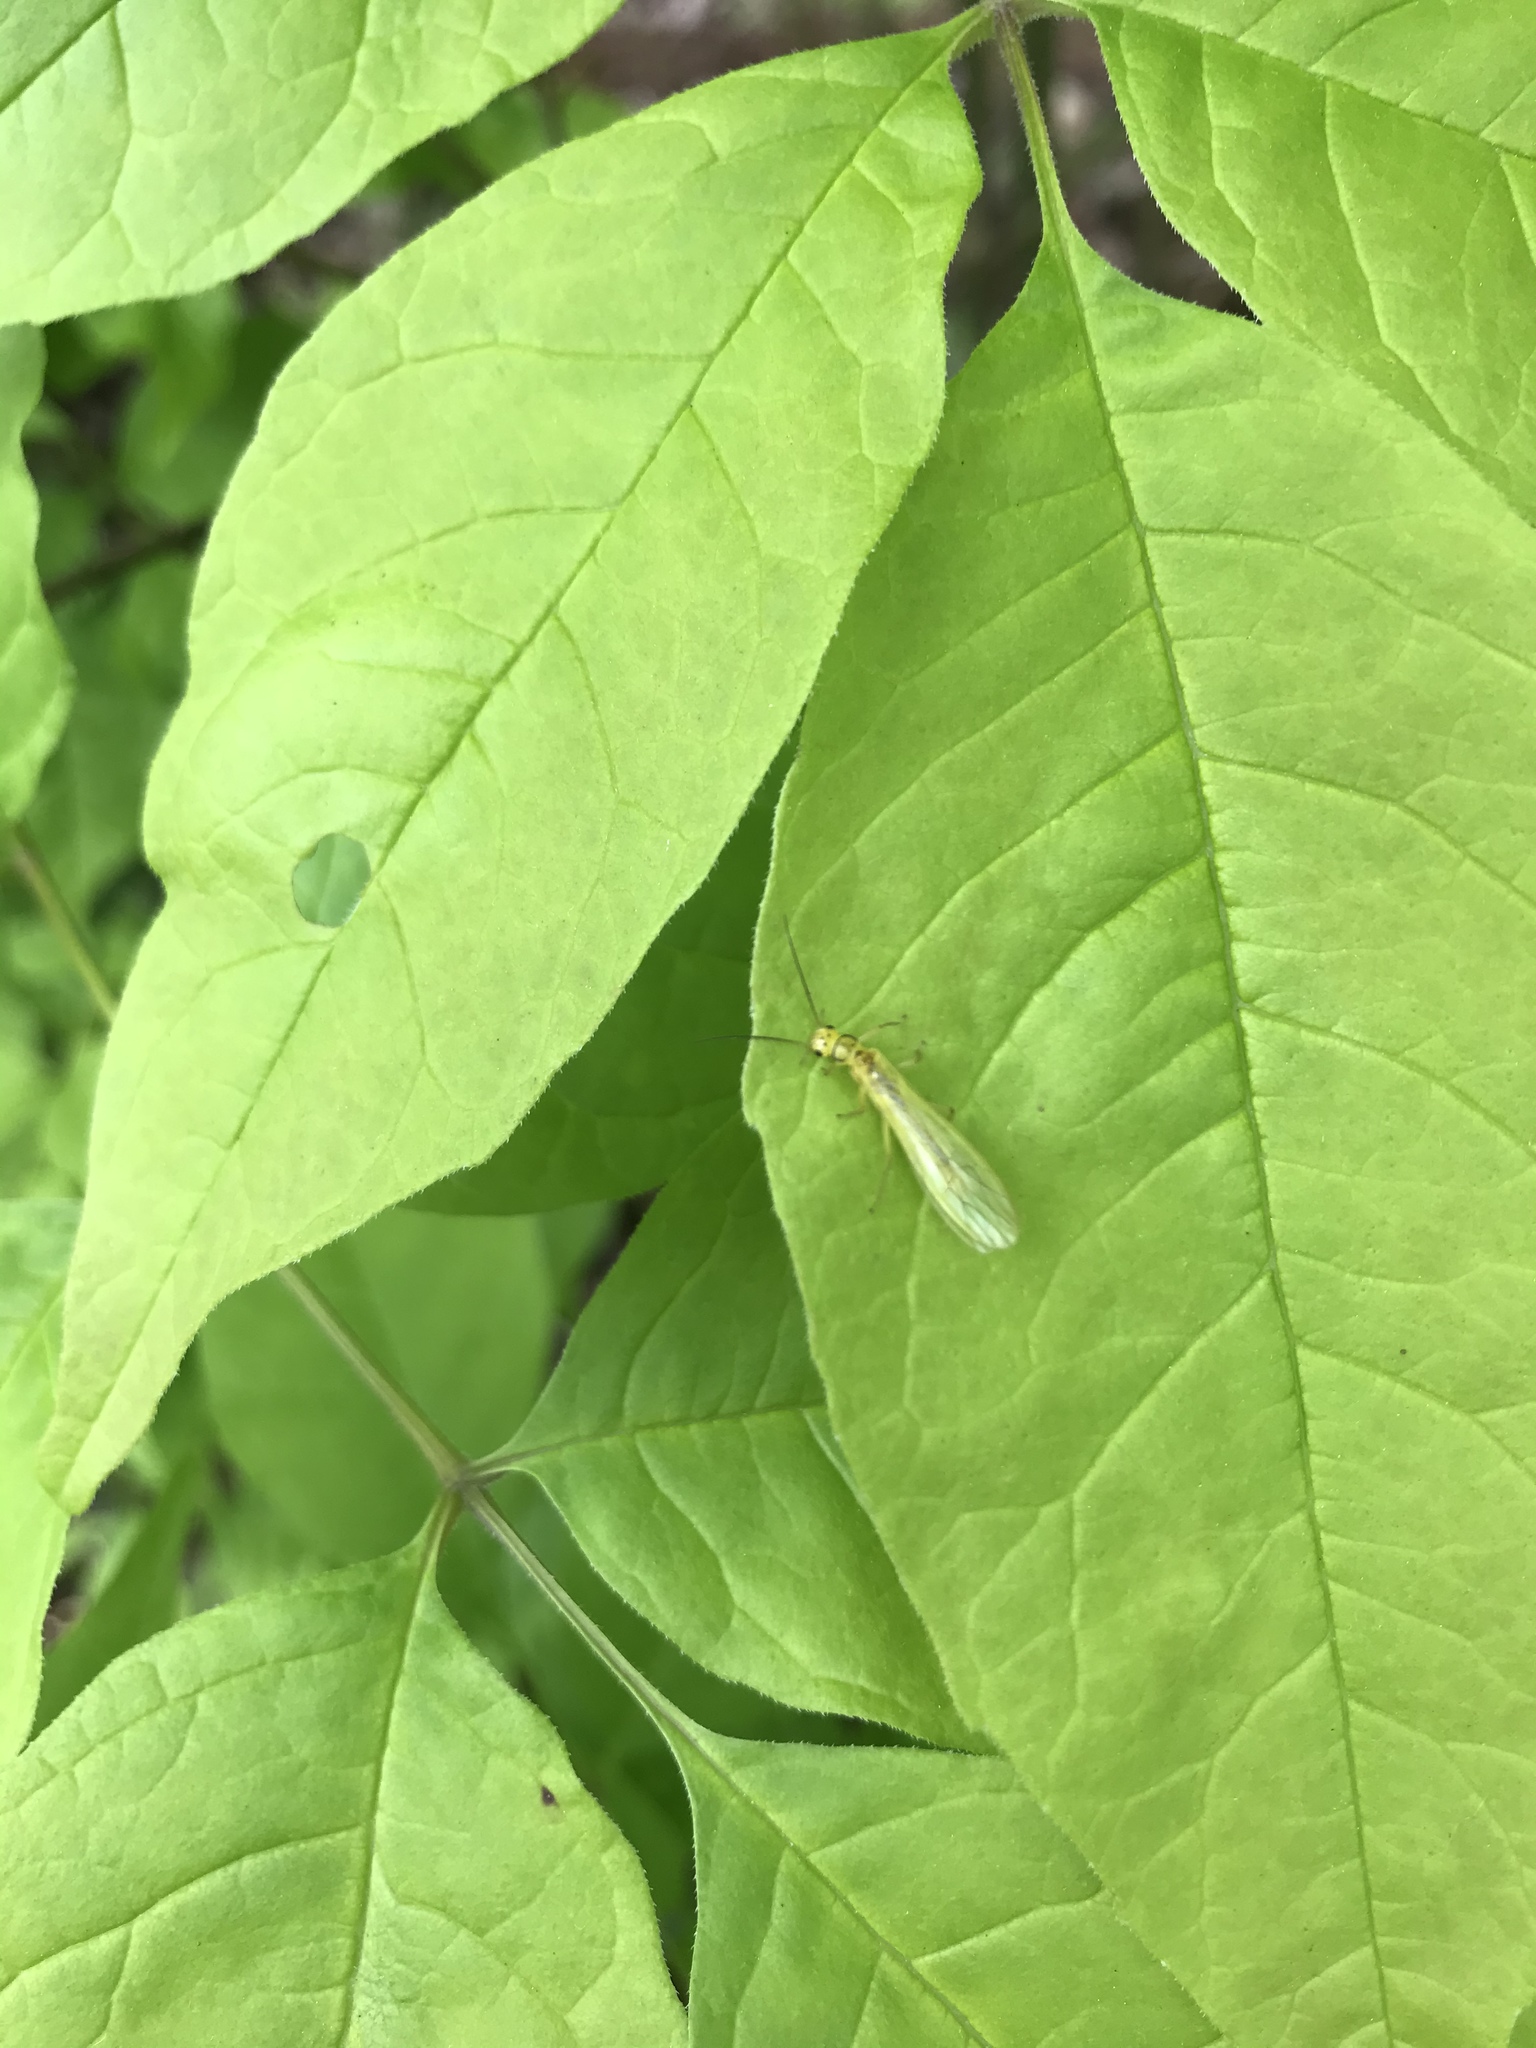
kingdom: Animalia
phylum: Arthropoda
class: Insecta
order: Plecoptera
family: Chloroperlidae
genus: Sweltsa
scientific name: Sweltsa lateralis
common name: Curved sallfly
